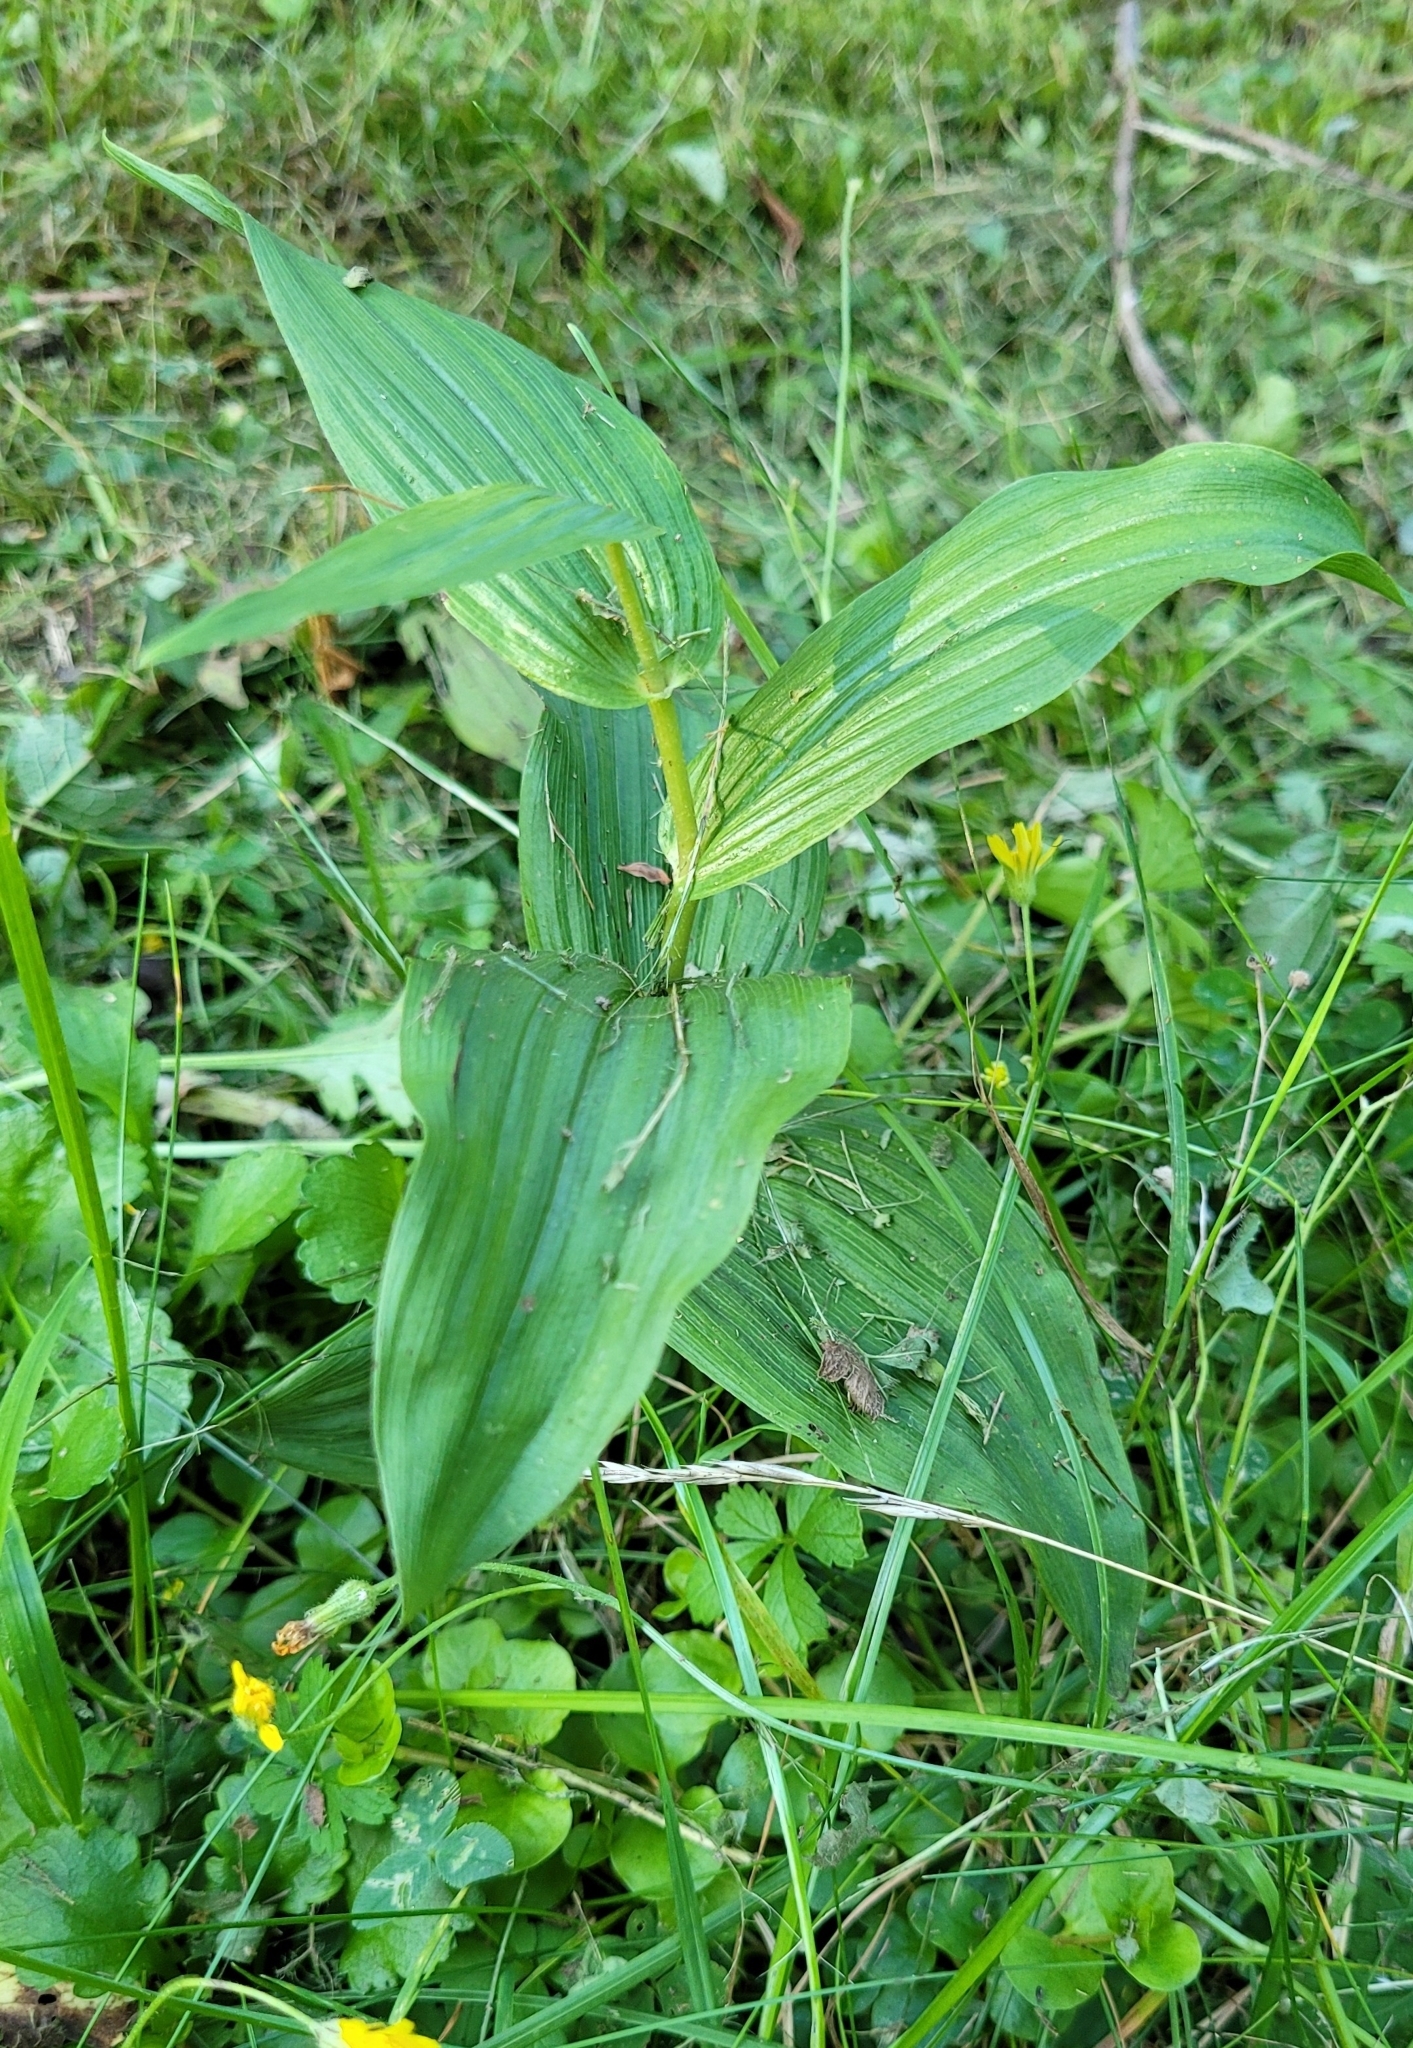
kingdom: Plantae
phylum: Tracheophyta
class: Liliopsida
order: Asparagales
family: Orchidaceae
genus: Epipactis
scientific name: Epipactis helleborine
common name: Broad-leaved helleborine
